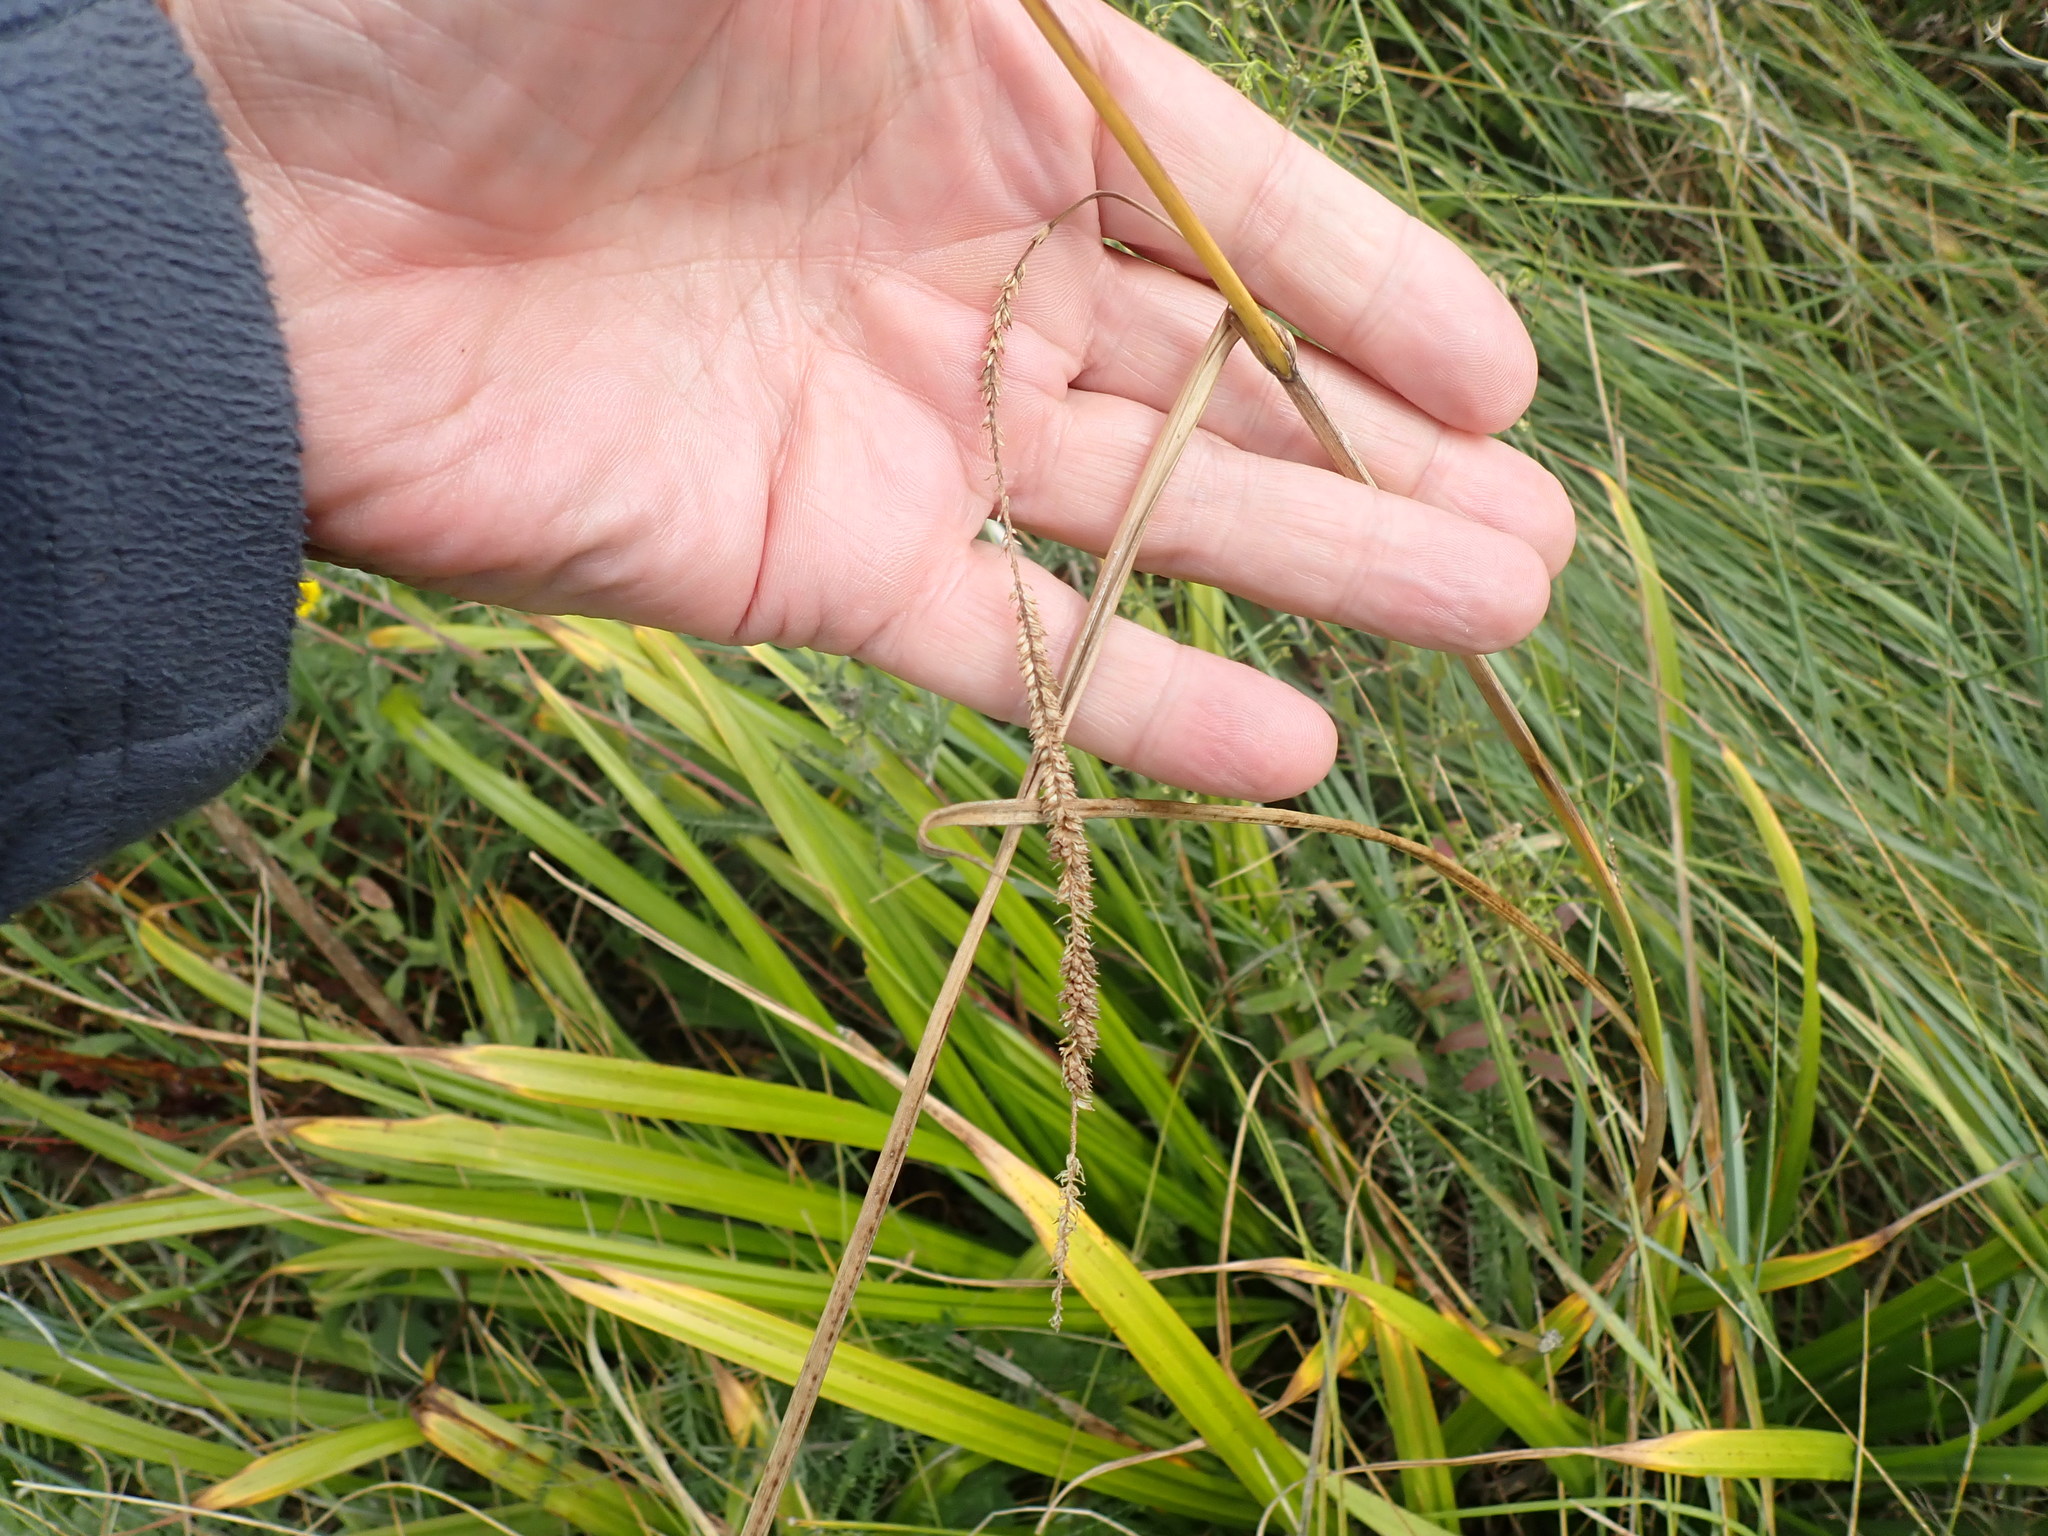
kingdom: Plantae
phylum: Tracheophyta
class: Liliopsida
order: Poales
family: Cyperaceae
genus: Carex
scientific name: Carex pendula
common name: Pendulous sedge
